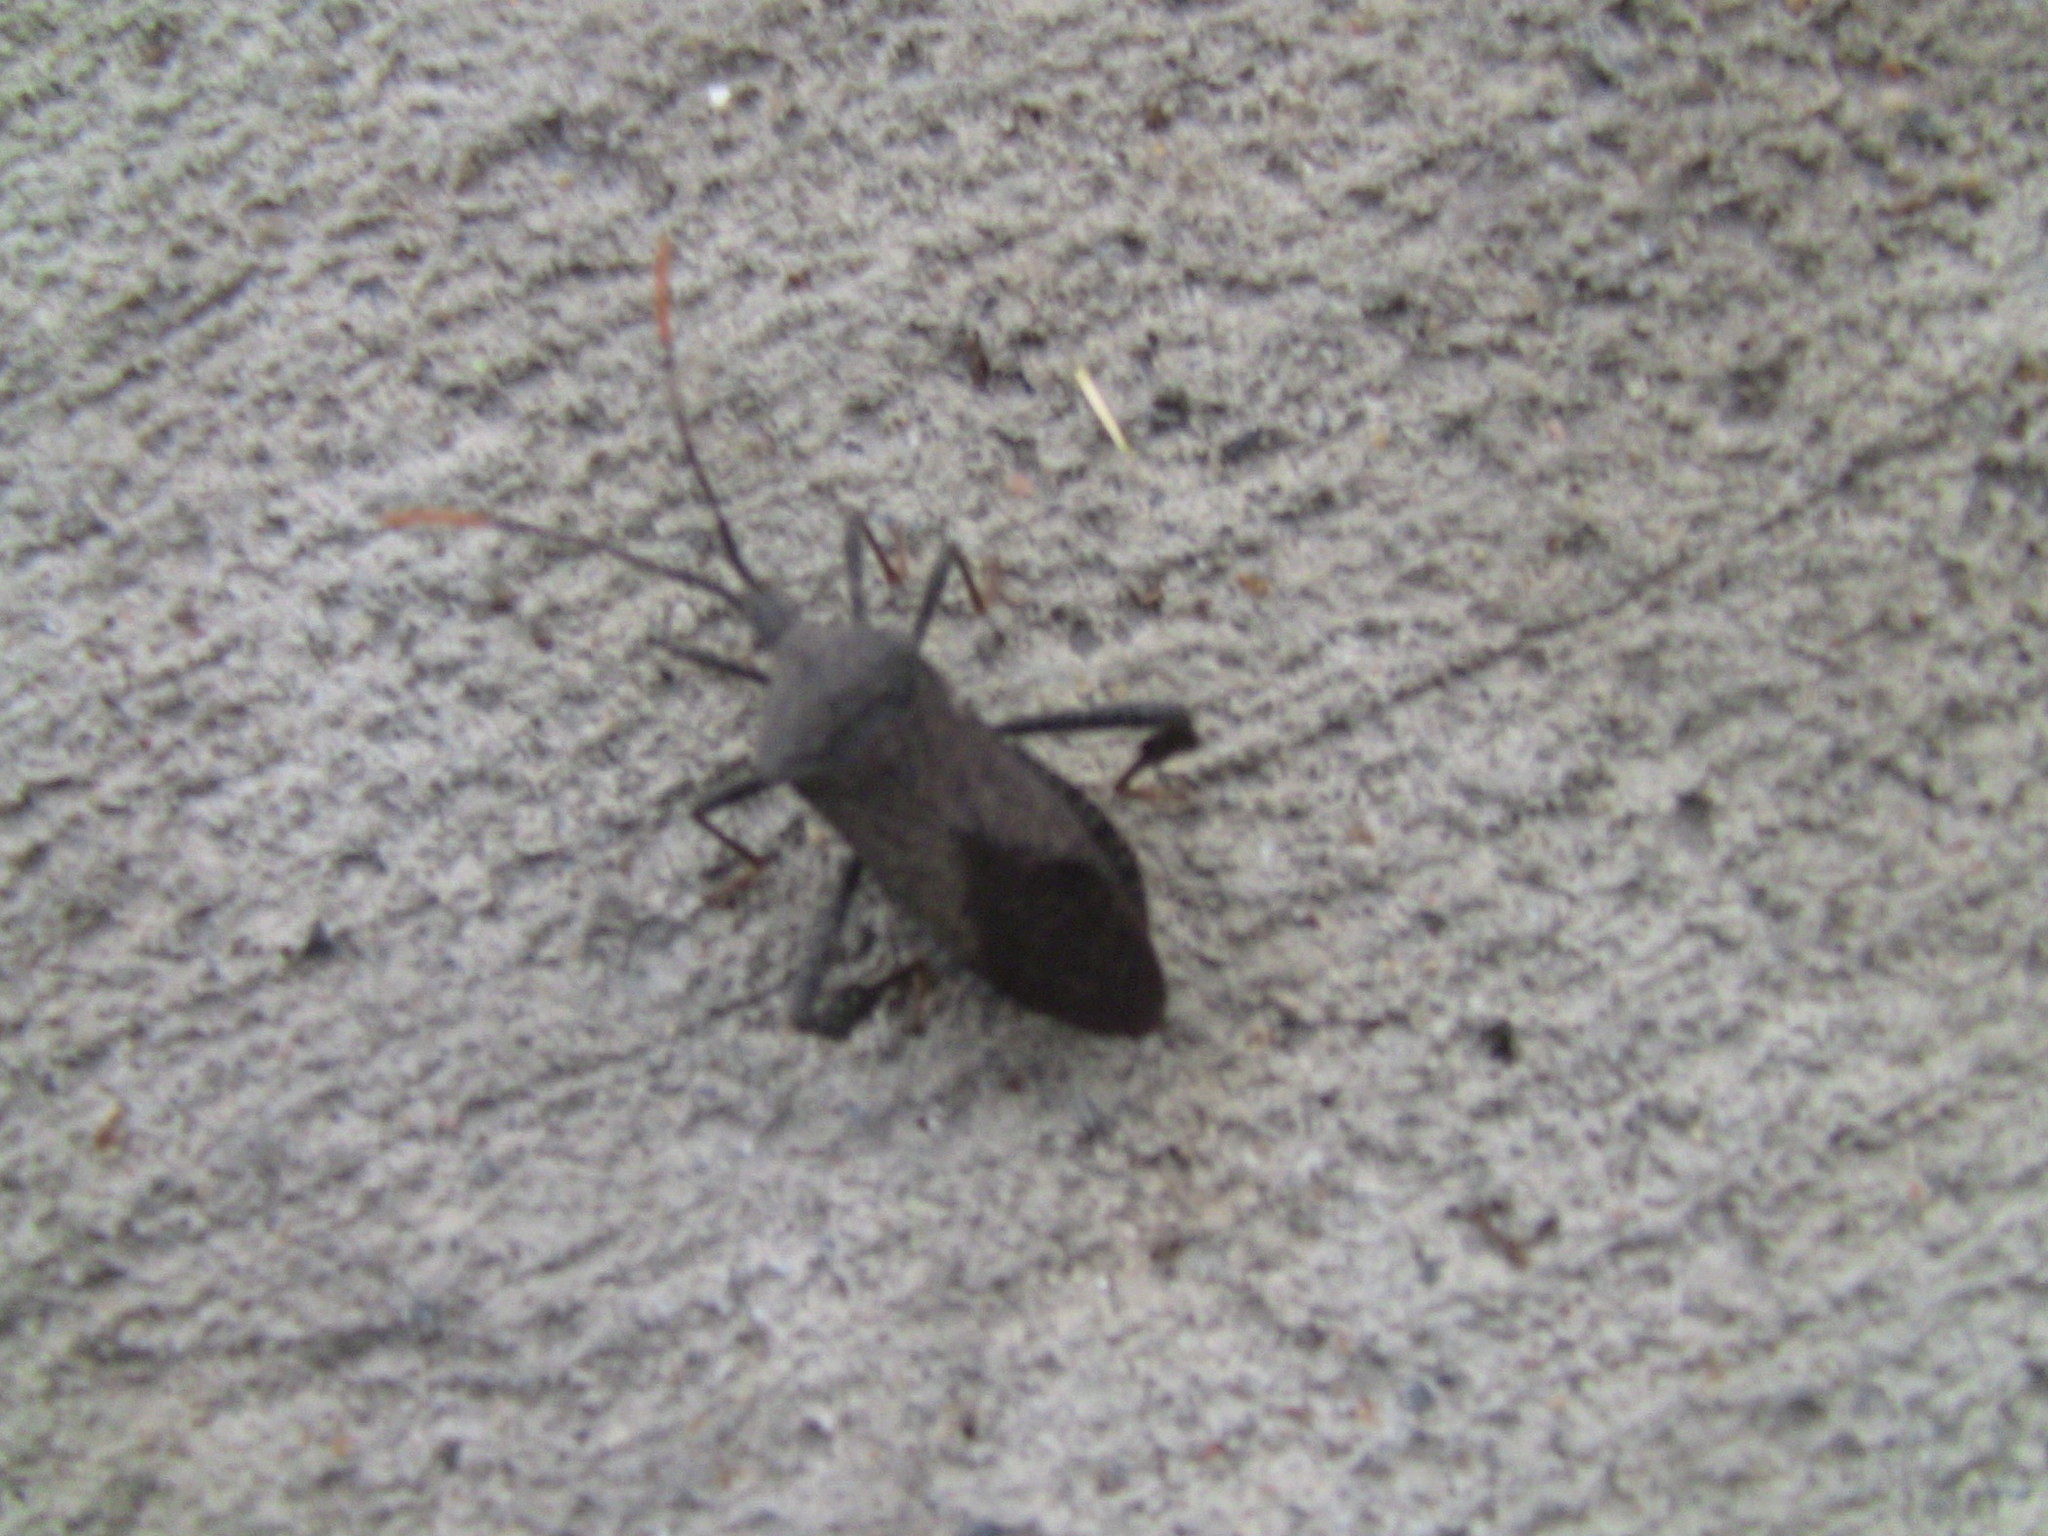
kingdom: Animalia
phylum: Arthropoda
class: Insecta
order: Hemiptera
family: Coreidae
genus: Acanthocephala
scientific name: Acanthocephala terminalis
